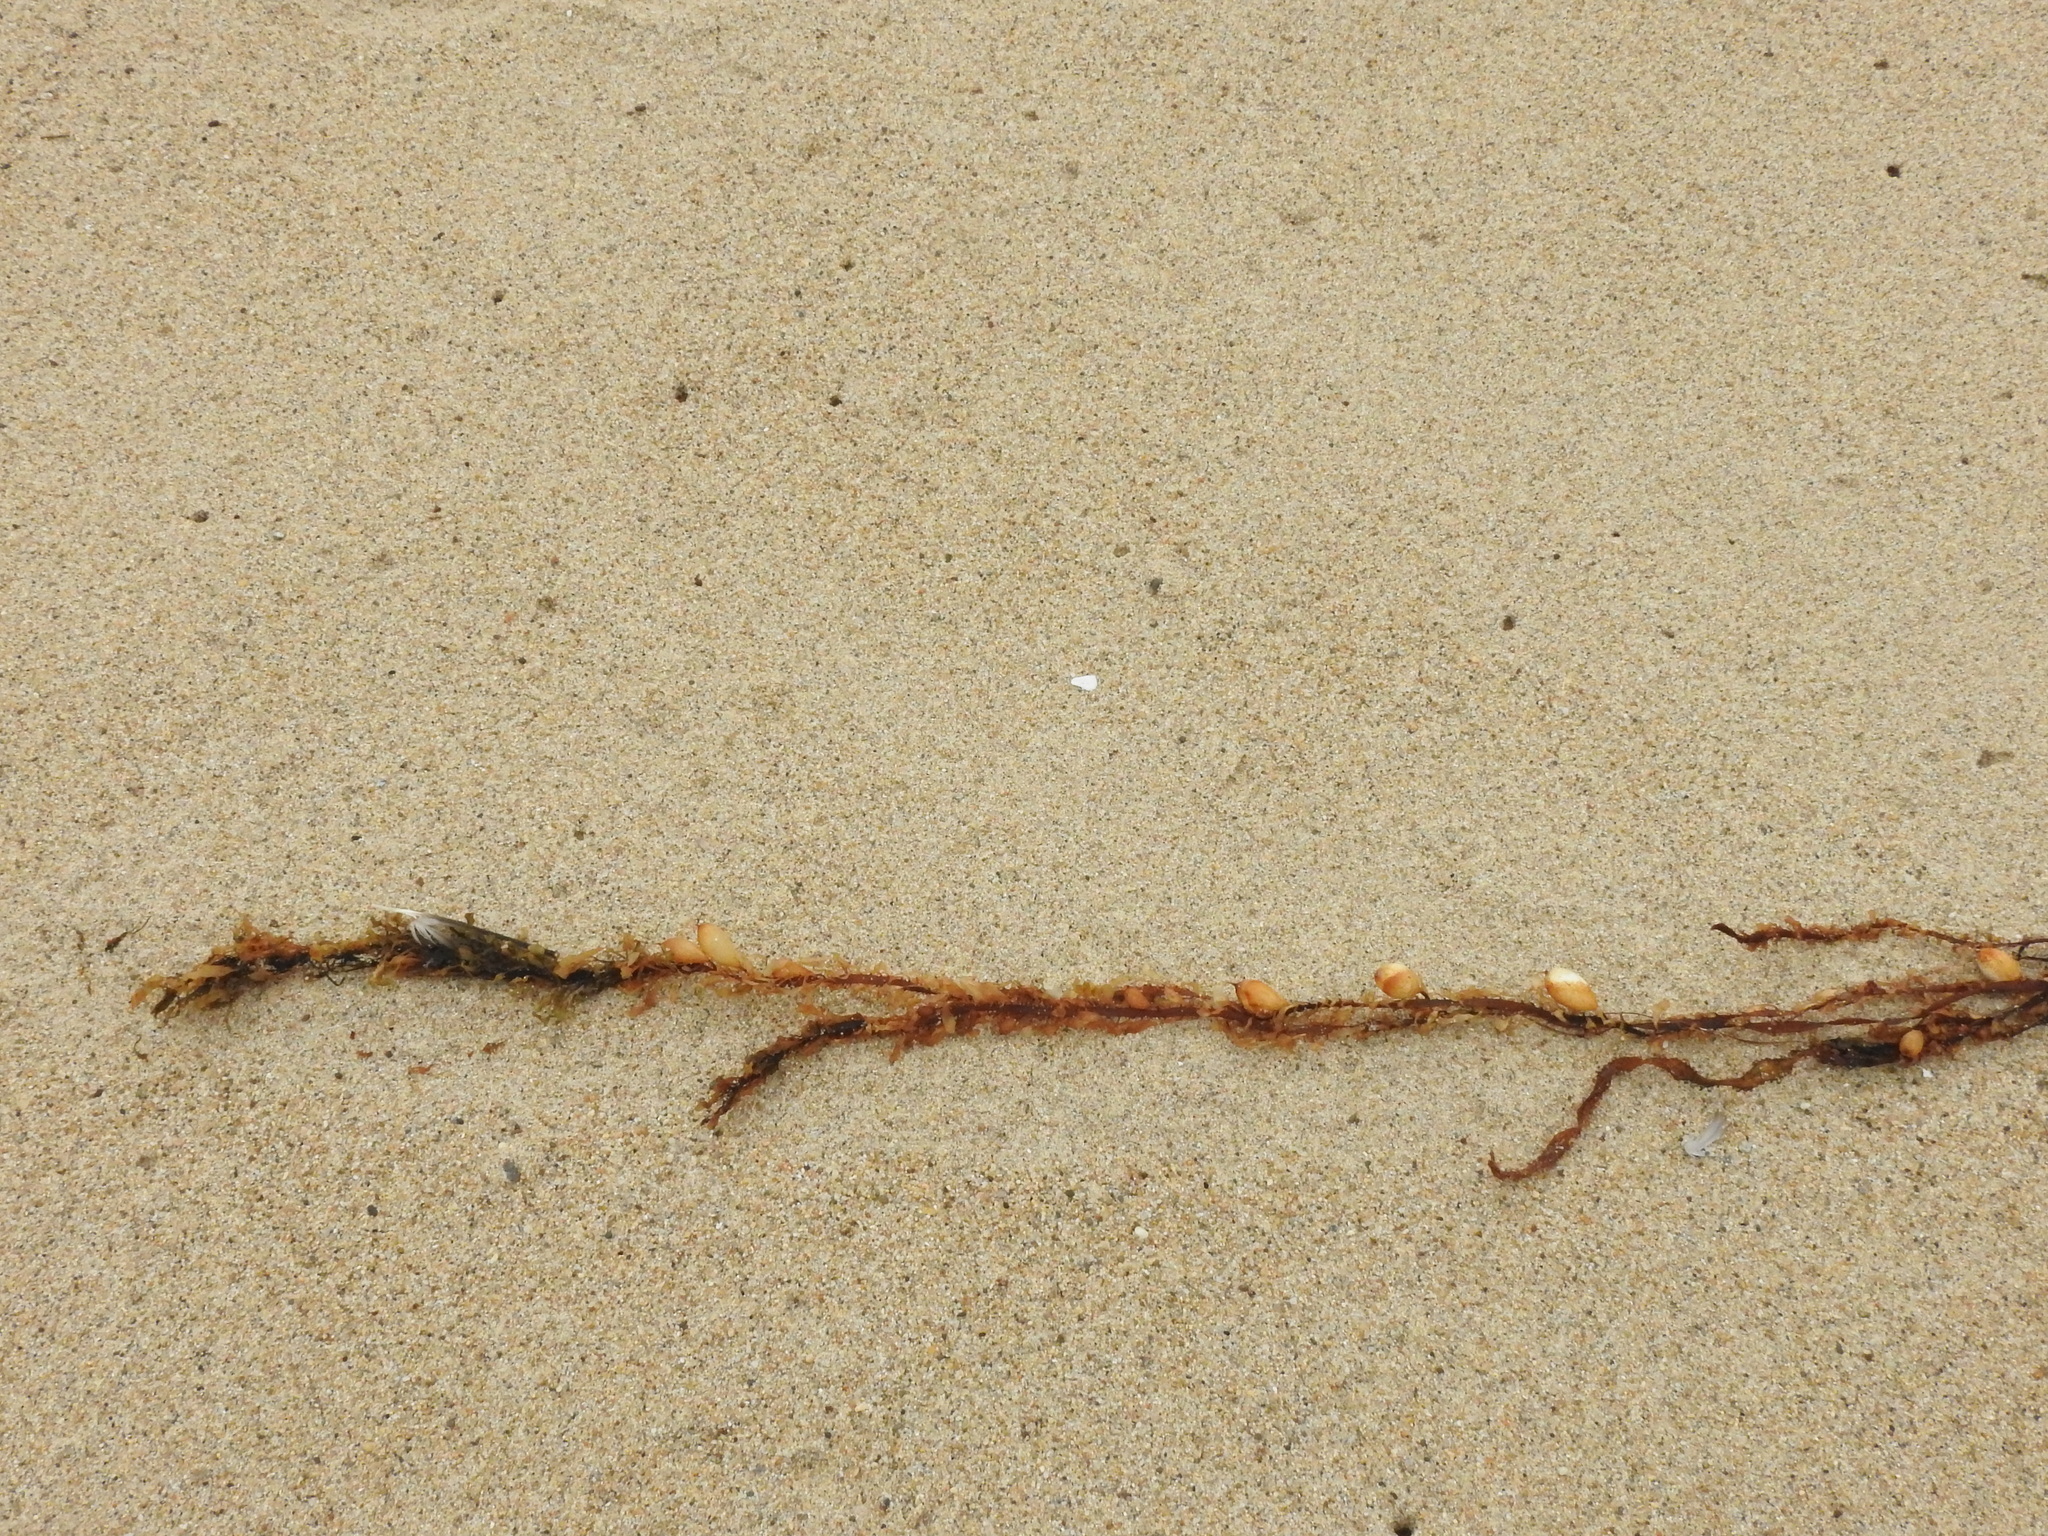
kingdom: Chromista
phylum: Ochrophyta
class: Phaeophyceae
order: Laminariales
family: Lessoniaceae
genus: Egregia
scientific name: Egregia menziesii
